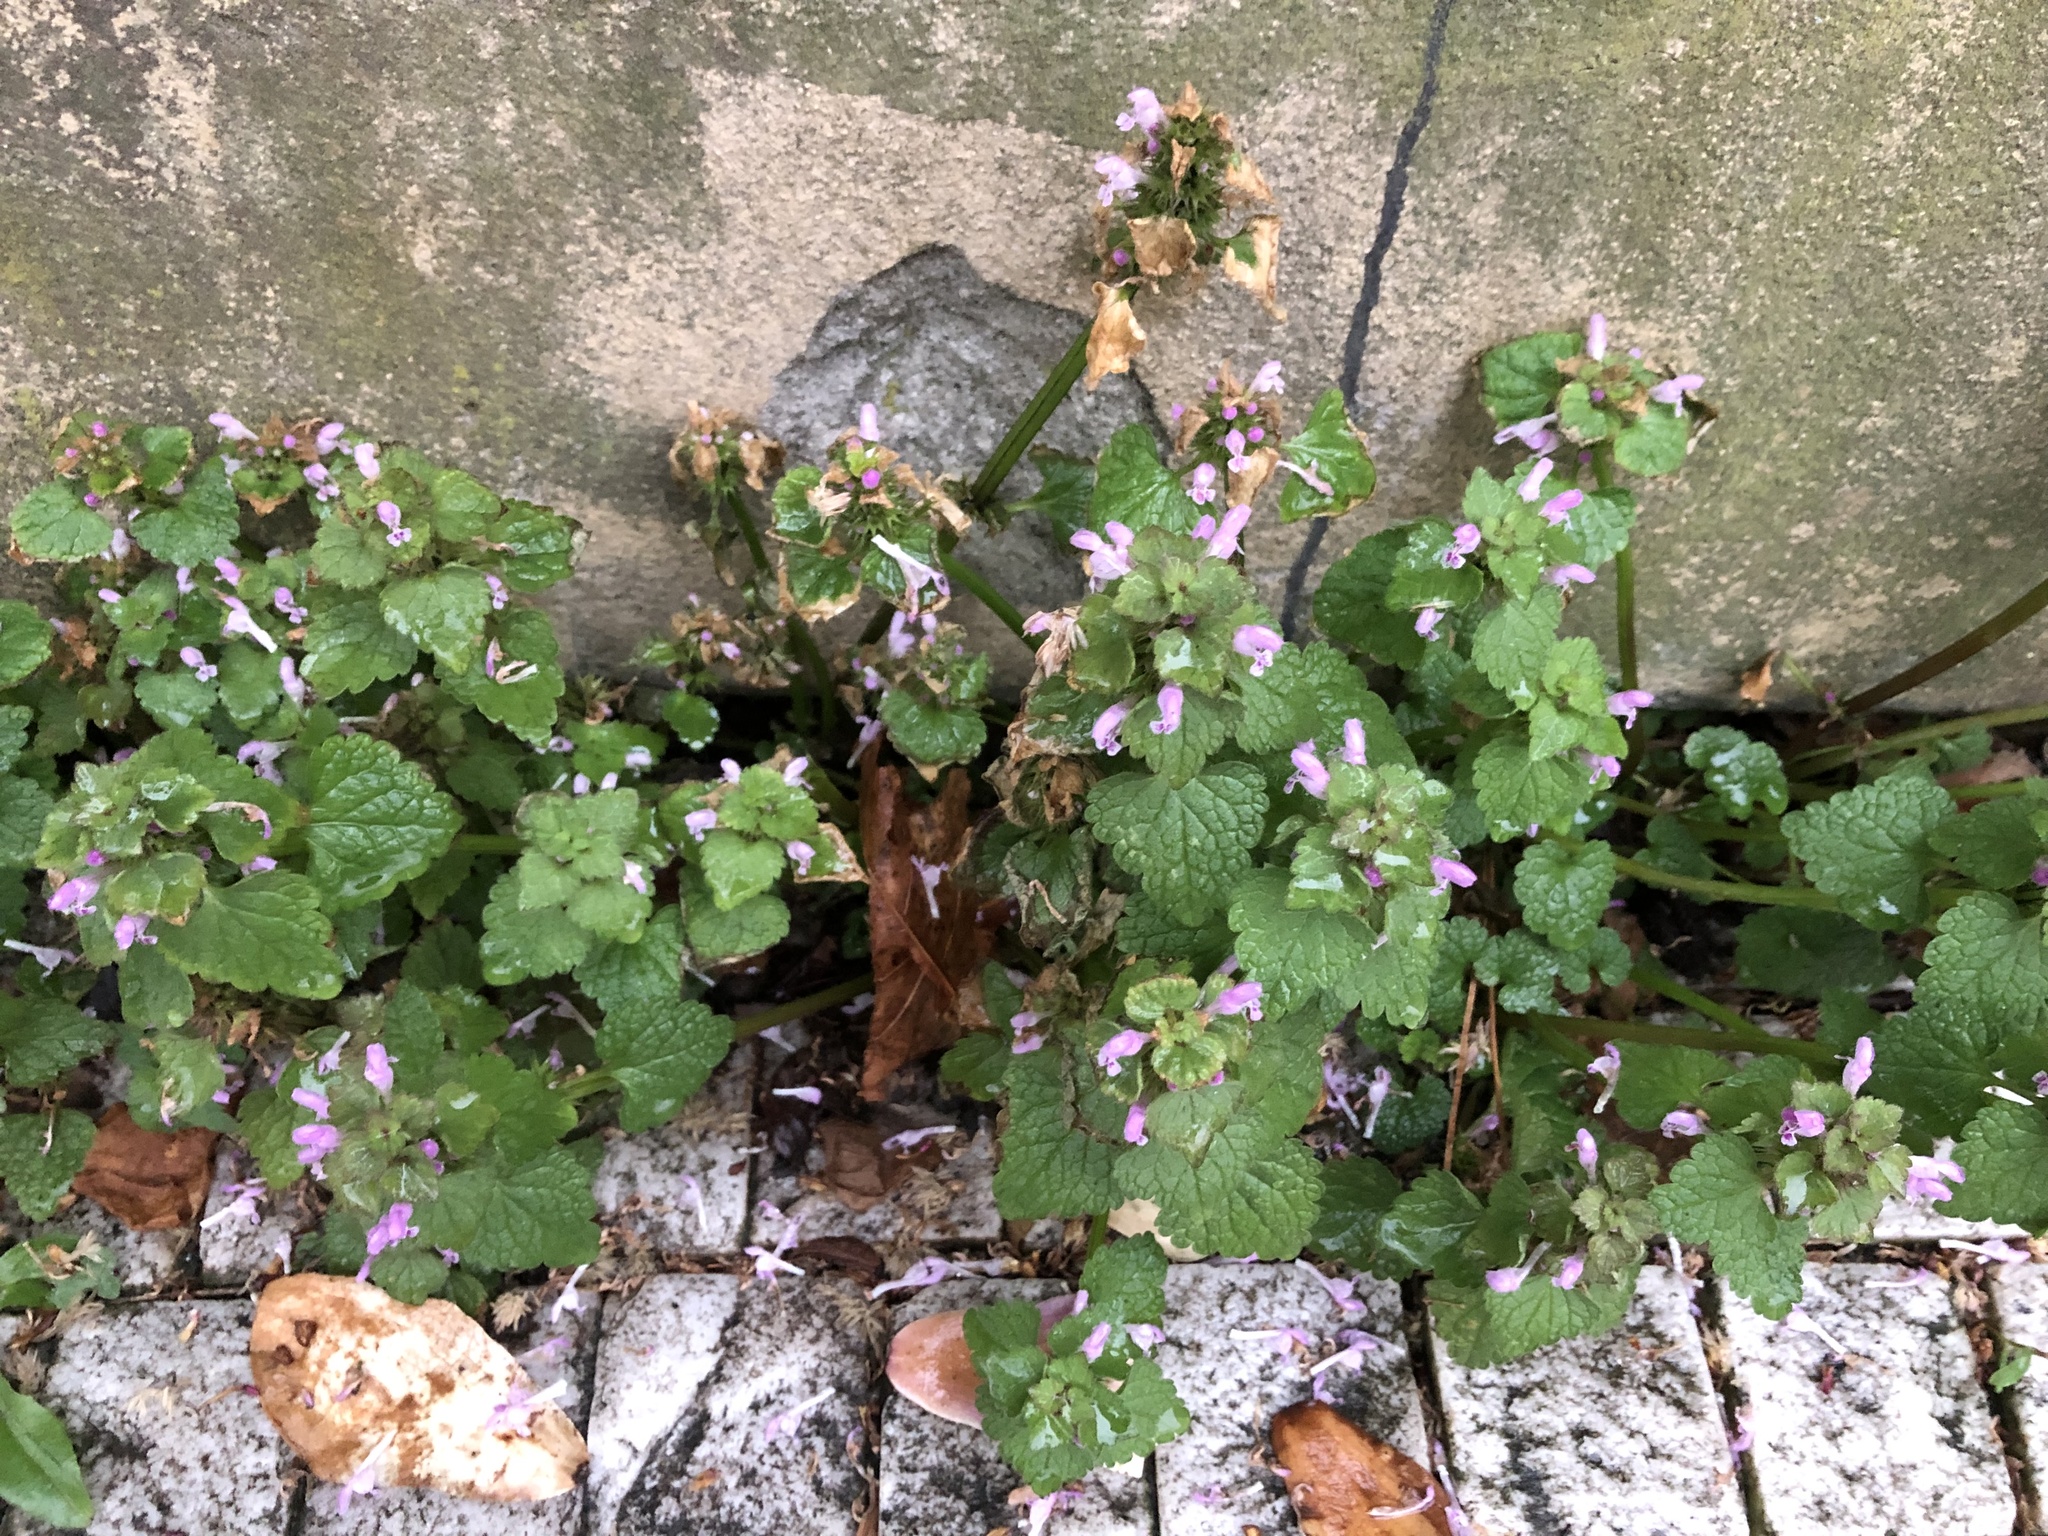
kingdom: Plantae
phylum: Tracheophyta
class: Magnoliopsida
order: Lamiales
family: Lamiaceae
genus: Lamium
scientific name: Lamium purpureum
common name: Red dead-nettle
